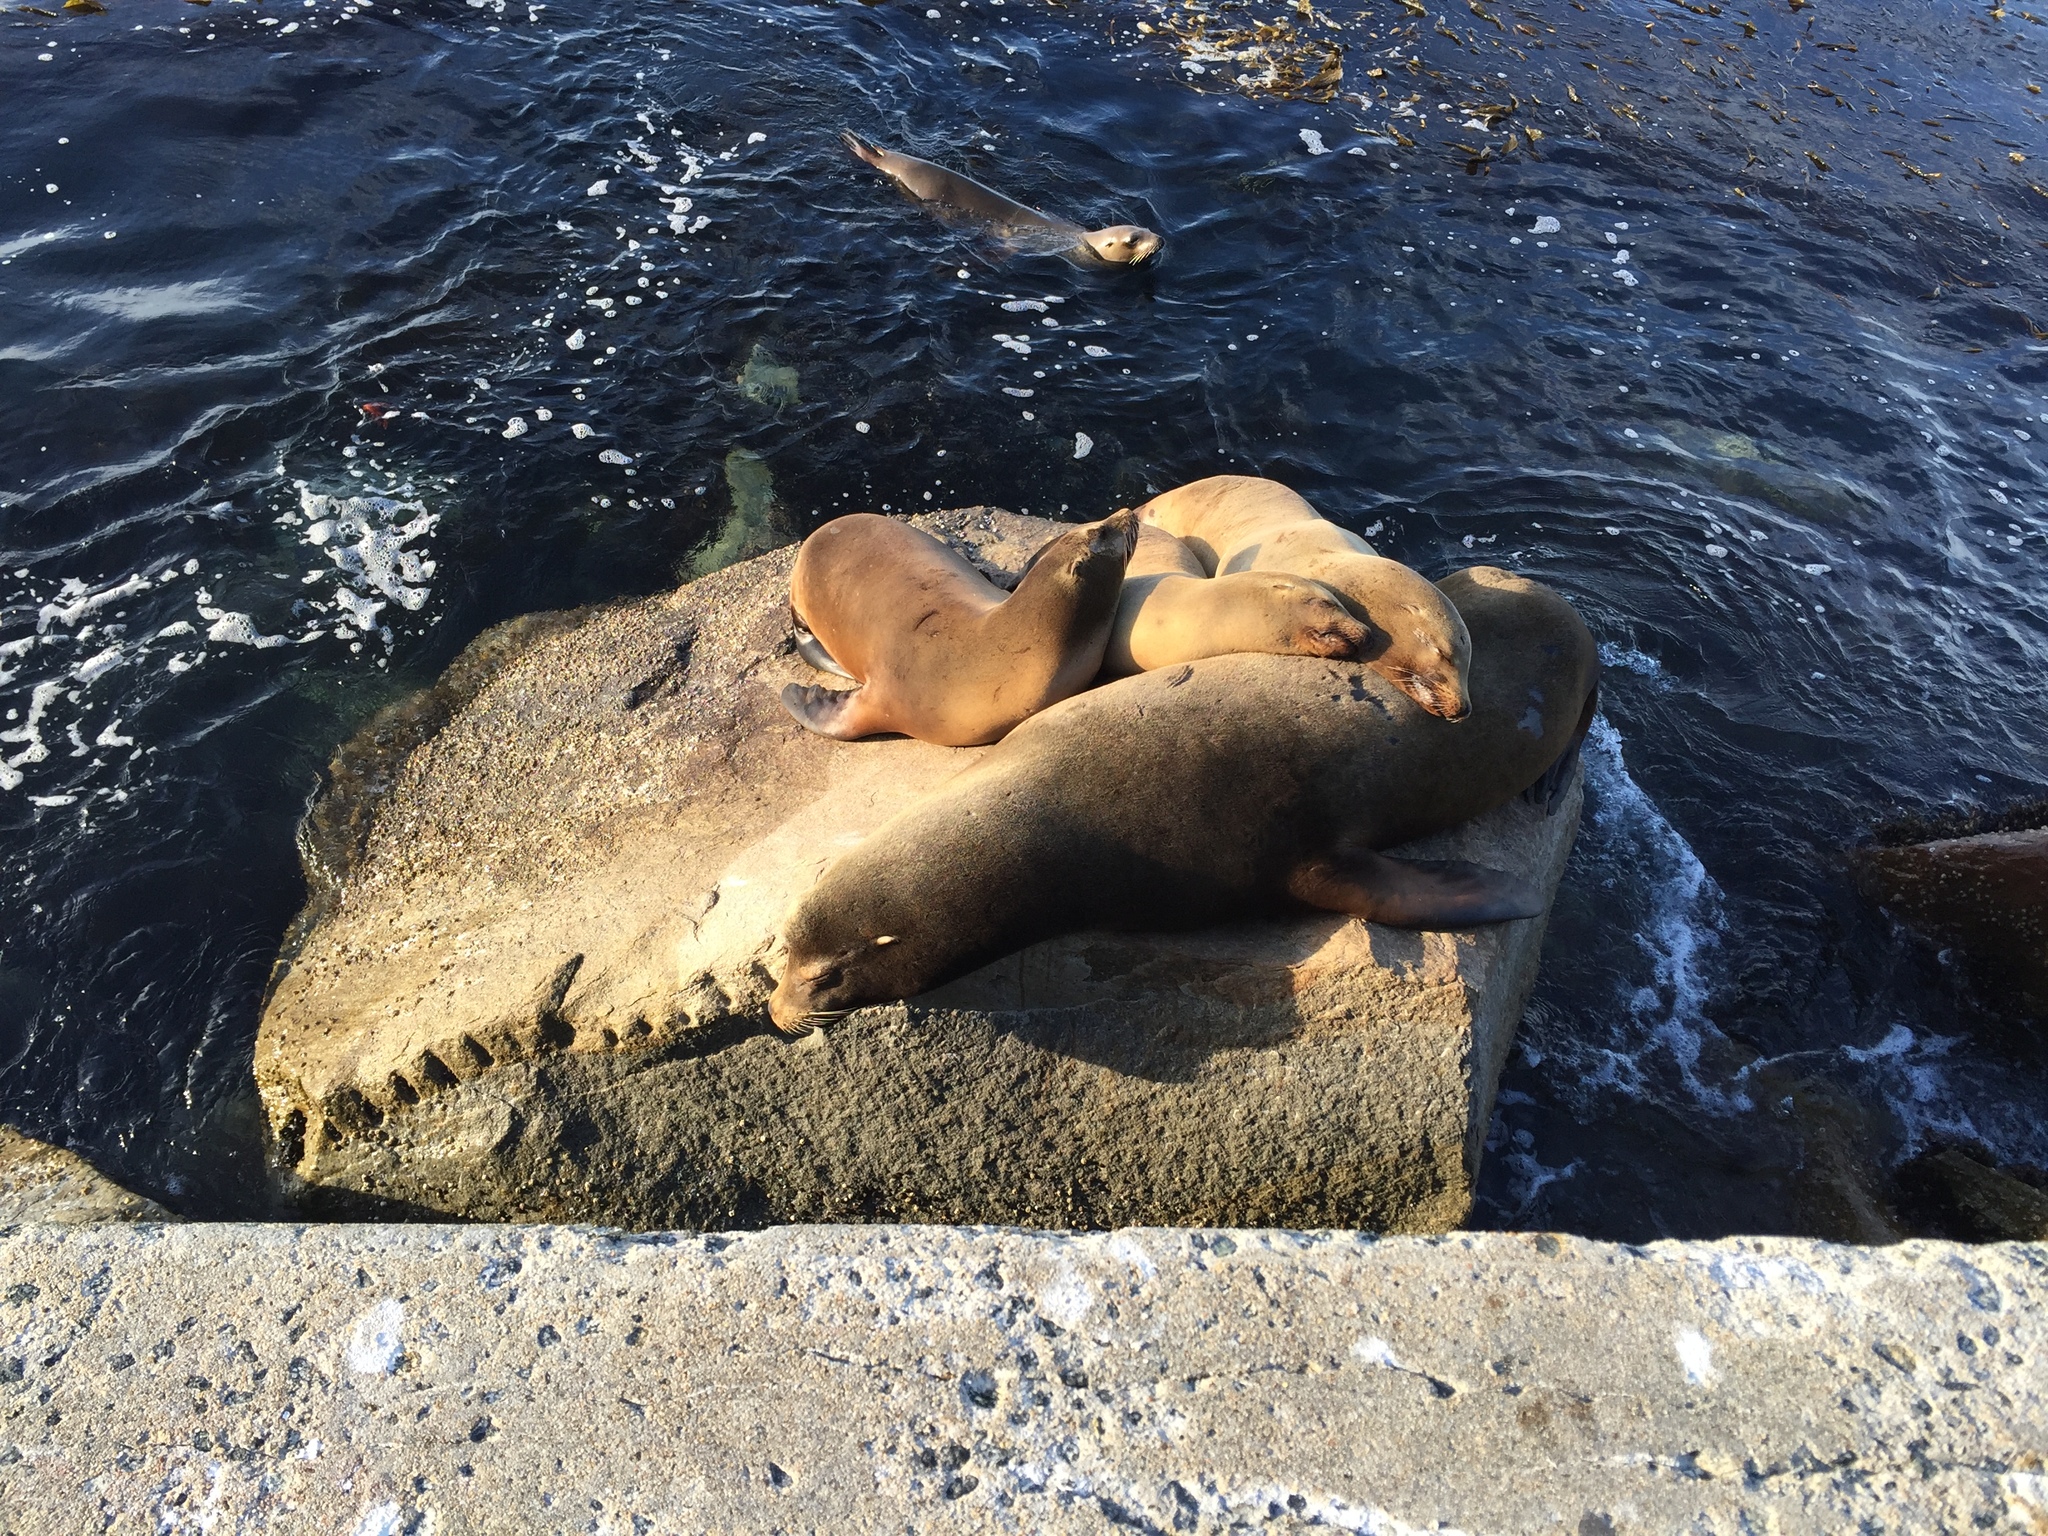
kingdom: Animalia
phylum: Chordata
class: Mammalia
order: Carnivora
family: Otariidae
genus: Zalophus
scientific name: Zalophus californianus
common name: California sea lion
